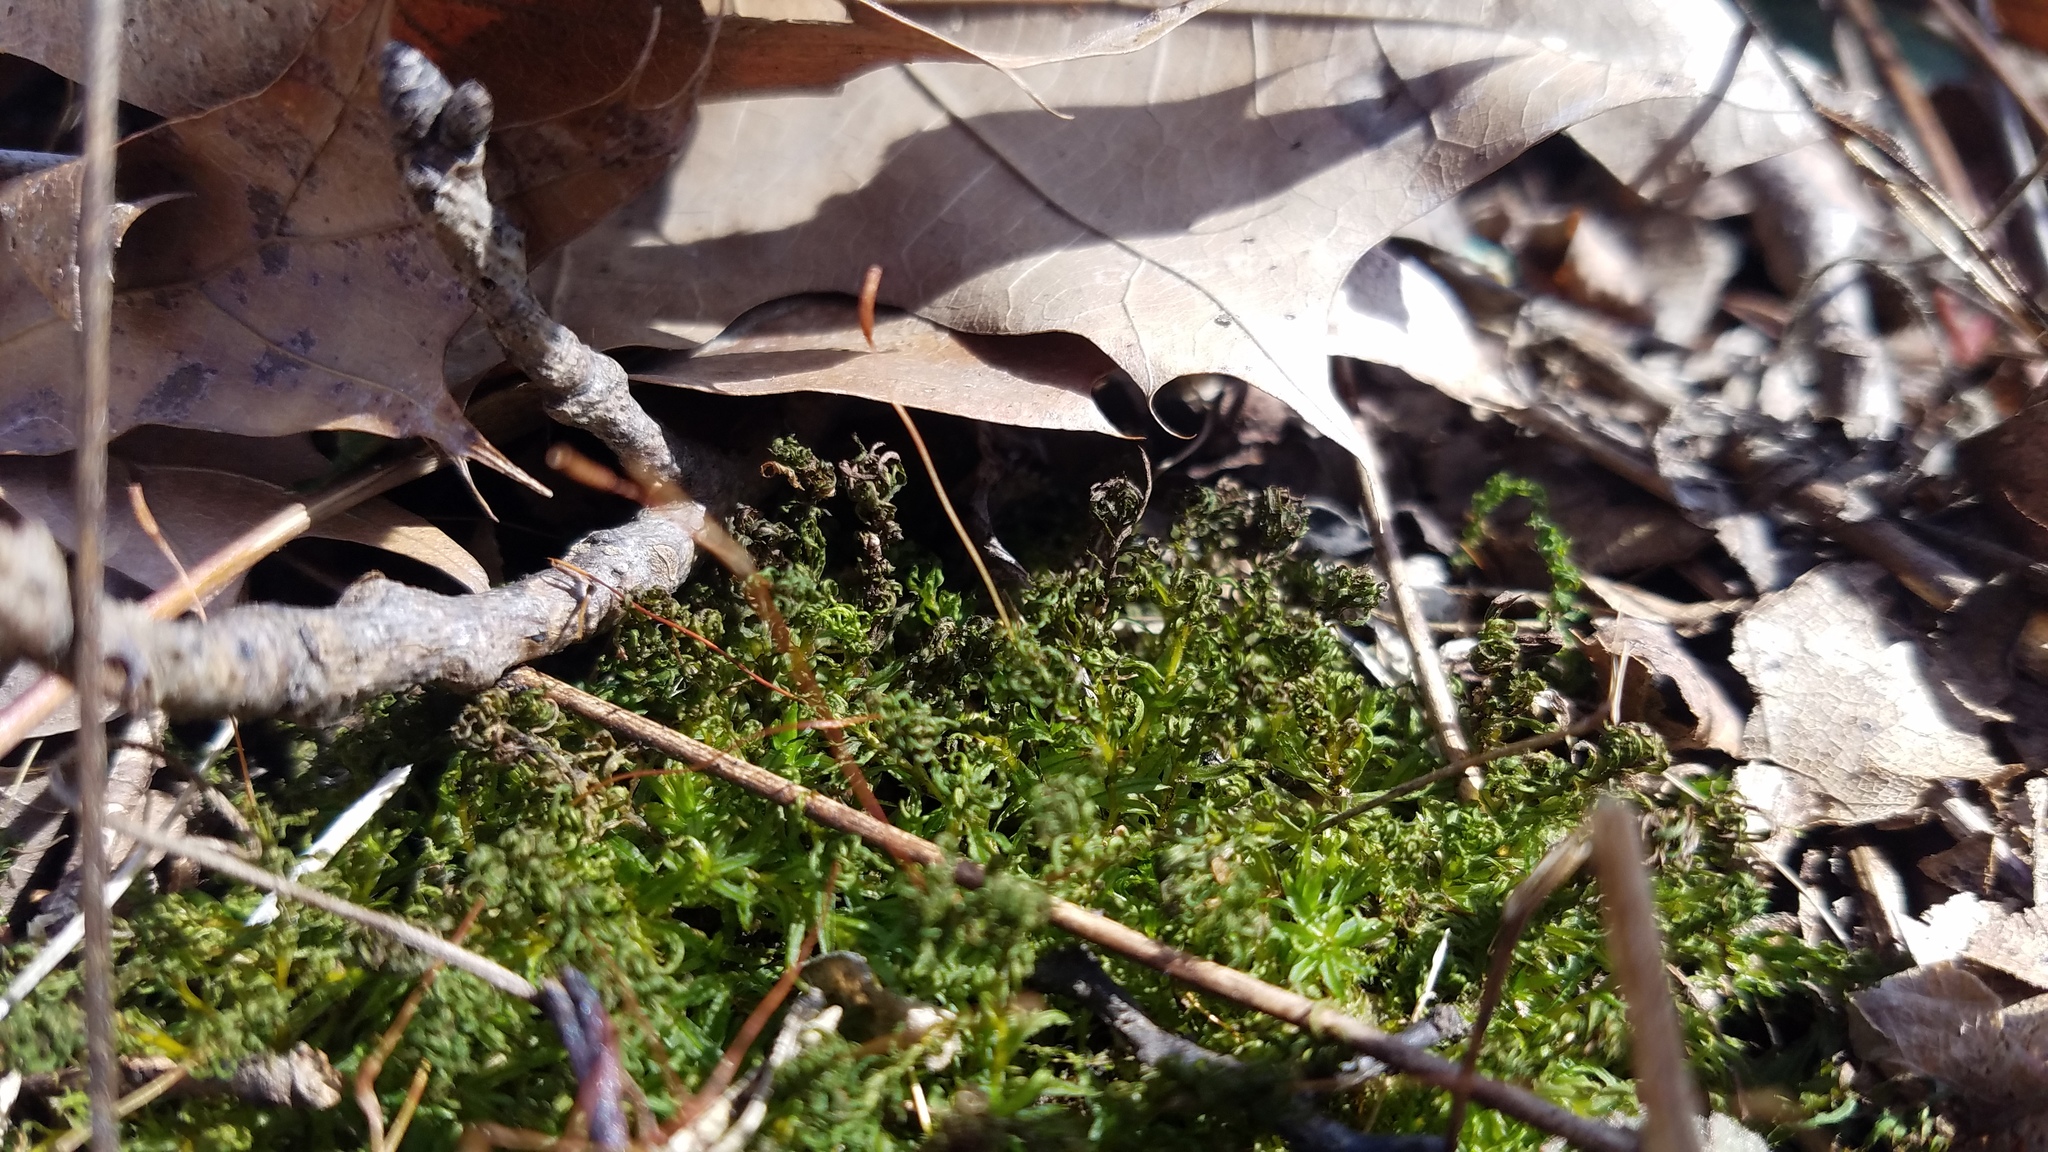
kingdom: Plantae
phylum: Bryophyta
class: Bryopsida
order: Bryales
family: Mniaceae
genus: Plagiomnium
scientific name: Plagiomnium cuspidatum
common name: Woodsy leafy moss
